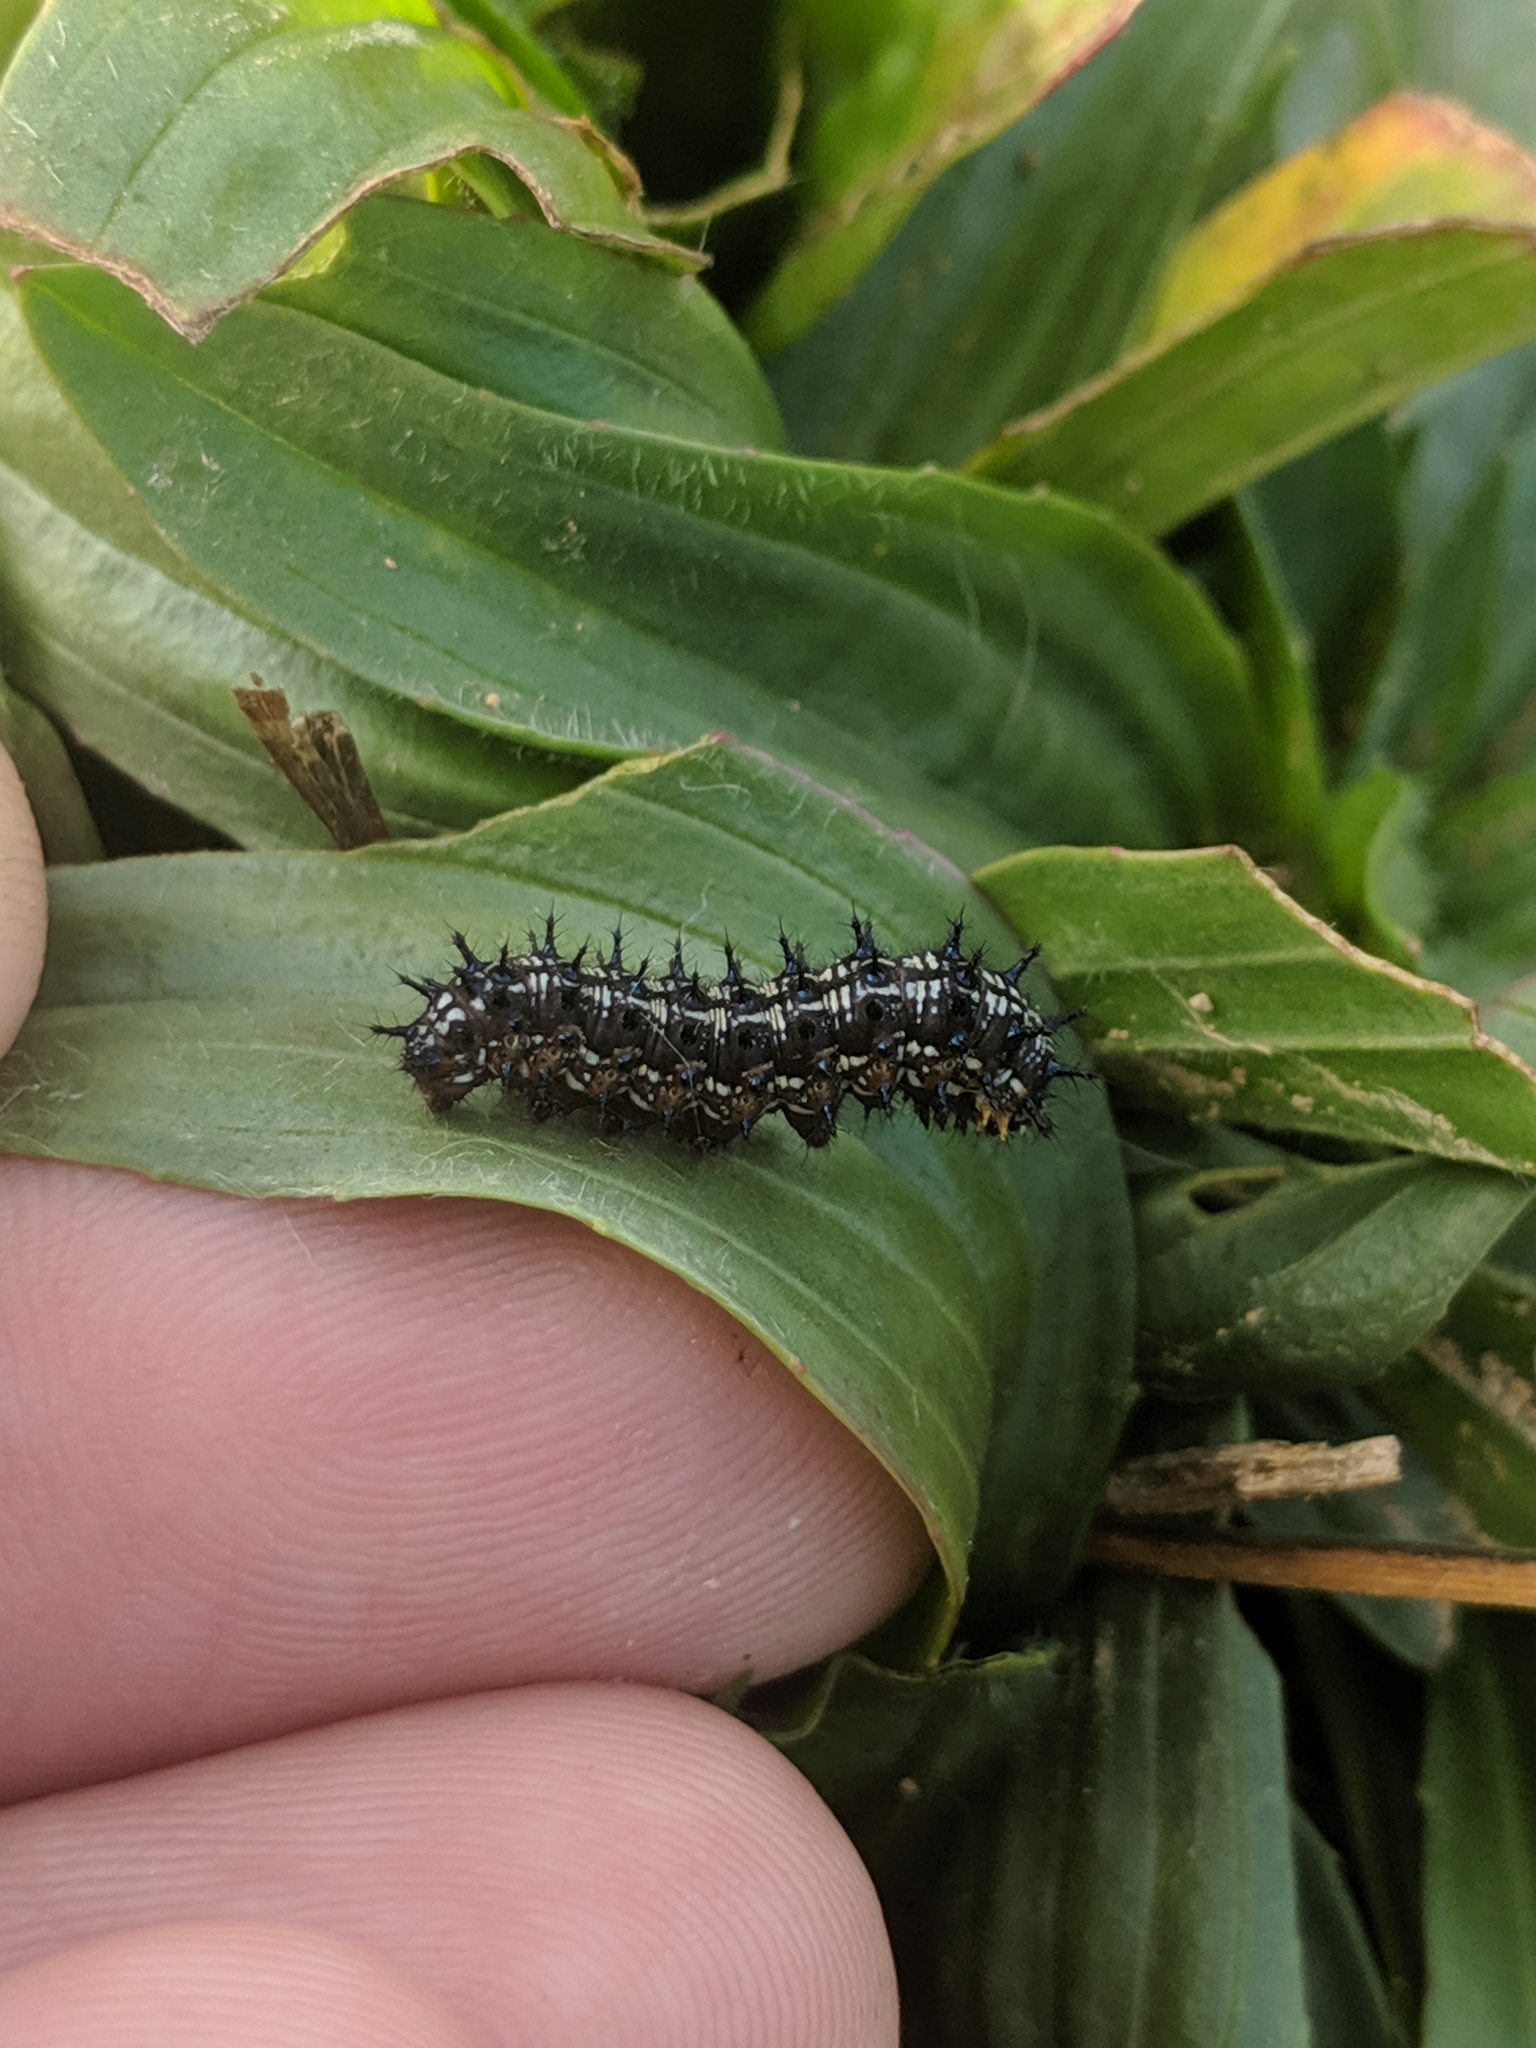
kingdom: Animalia
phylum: Arthropoda
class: Insecta
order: Lepidoptera
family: Nymphalidae
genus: Junonia
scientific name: Junonia coenia
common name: Common buckeye
